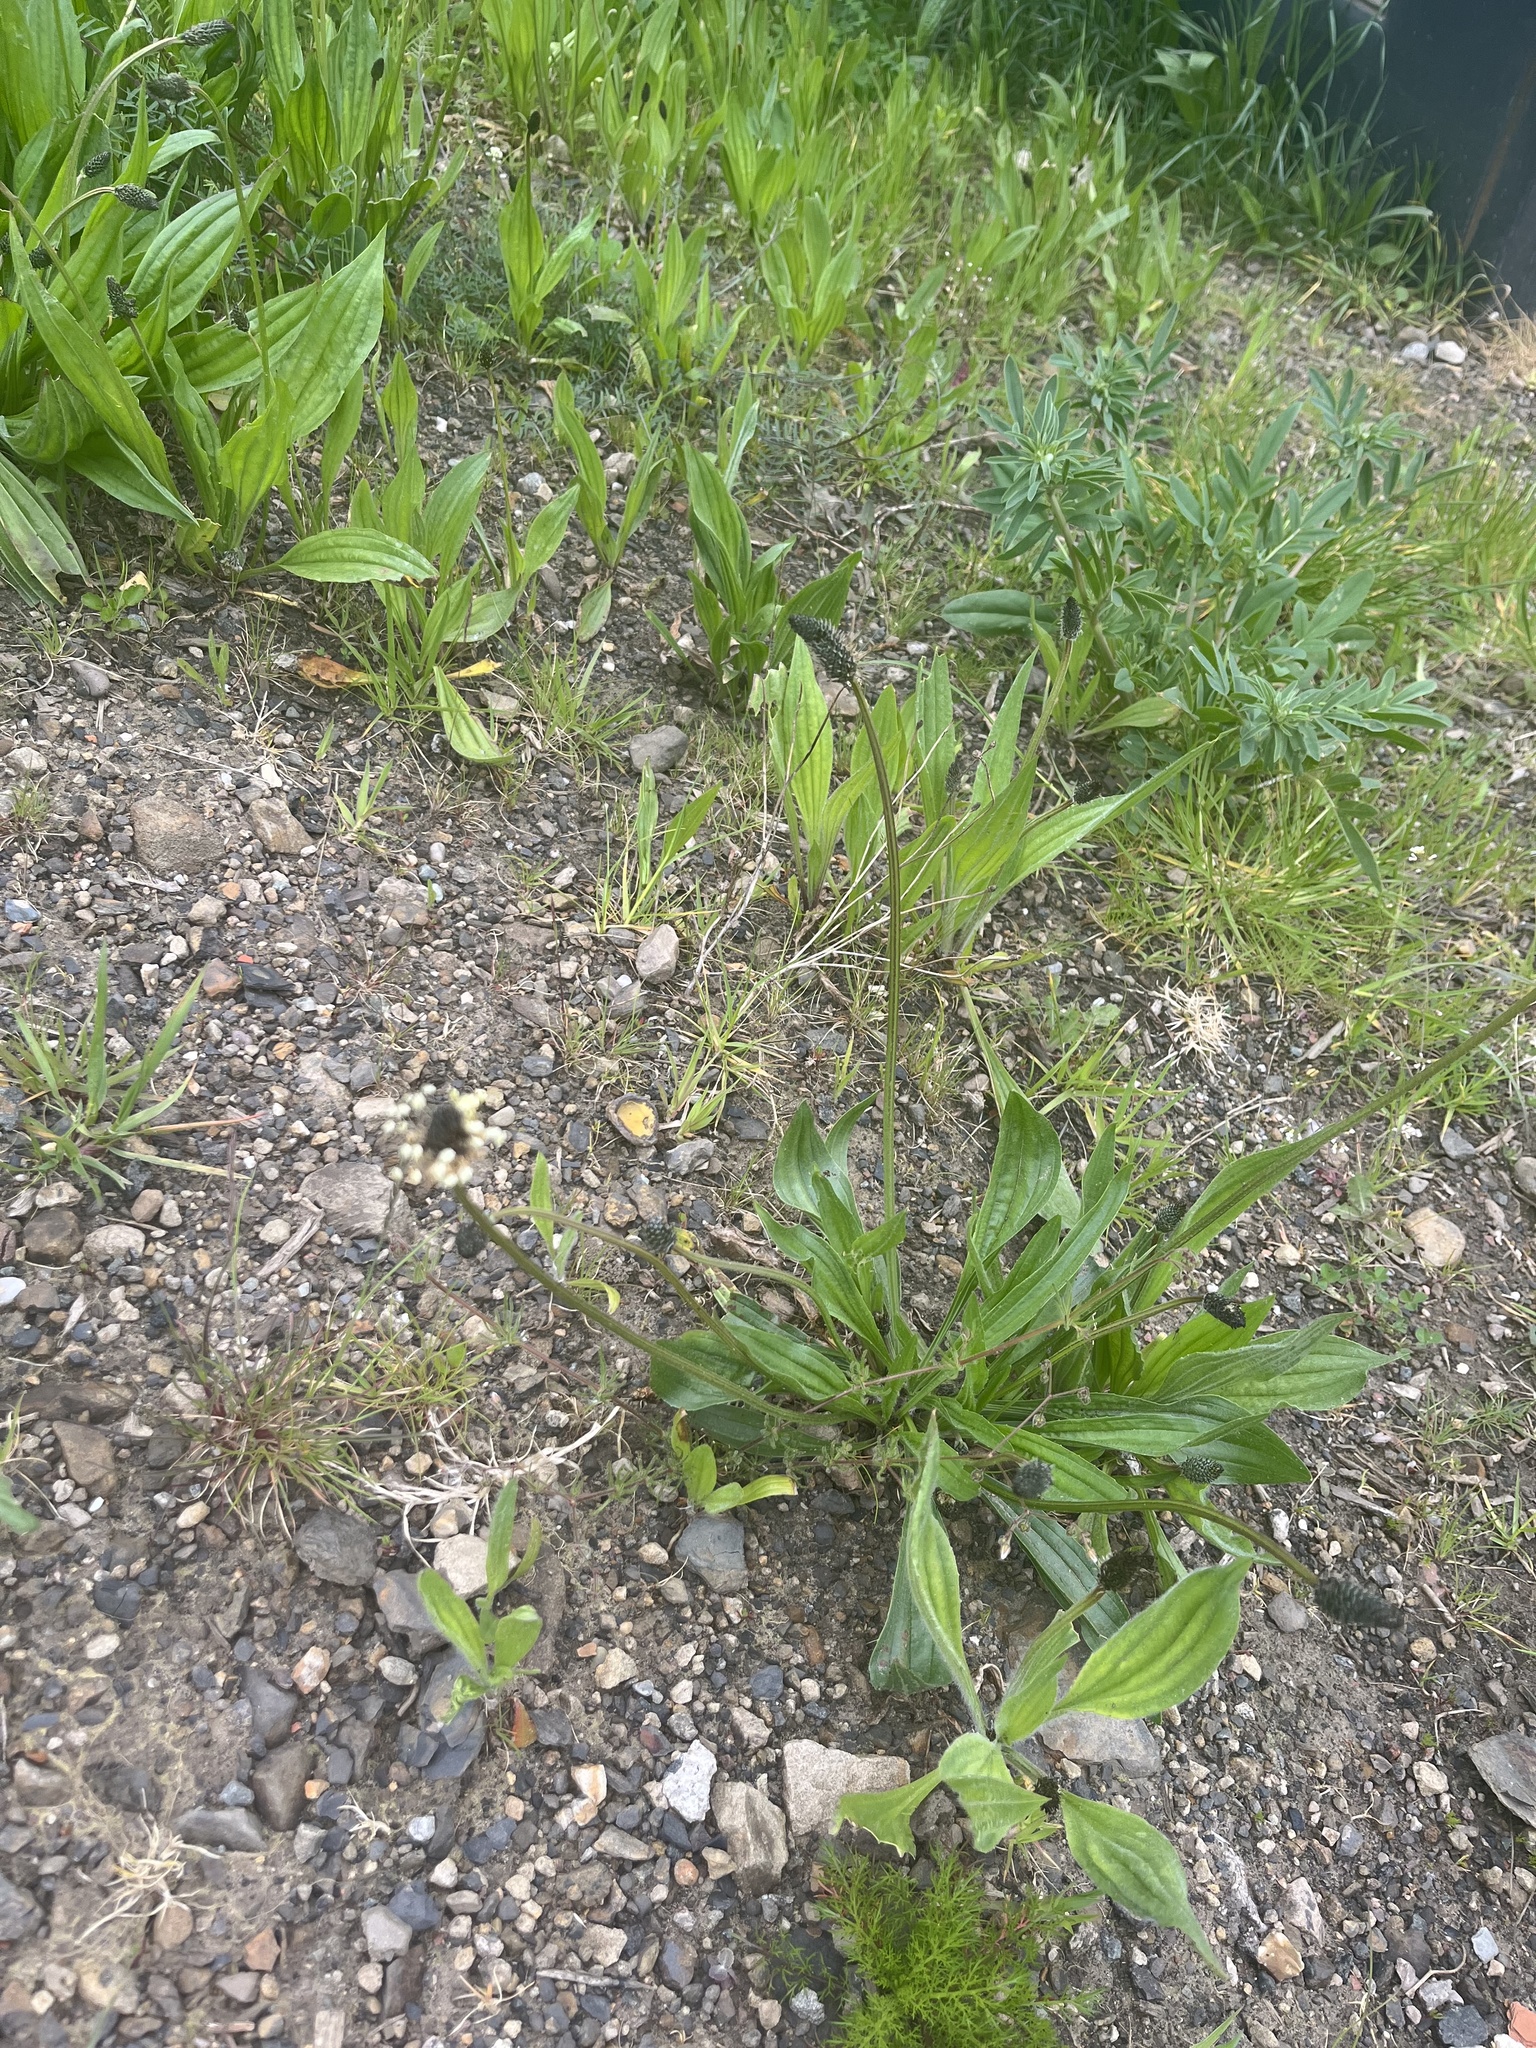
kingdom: Plantae
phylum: Tracheophyta
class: Magnoliopsida
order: Lamiales
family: Plantaginaceae
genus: Plantago
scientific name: Plantago lanceolata
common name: Ribwort plantain
